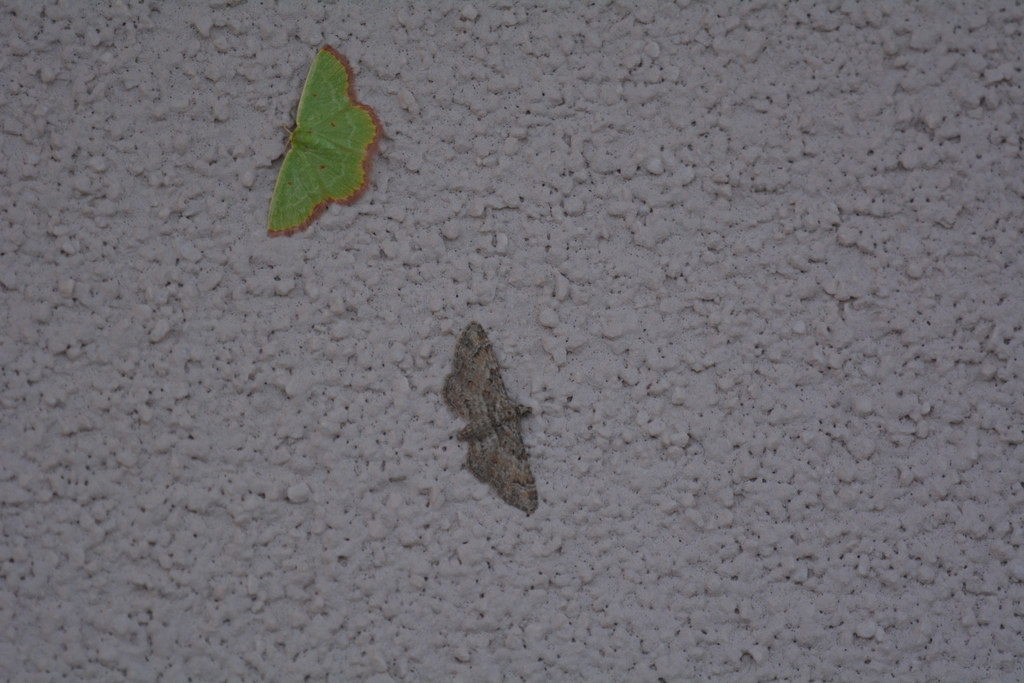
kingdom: Animalia
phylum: Arthropoda
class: Insecta
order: Lepidoptera
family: Geometridae
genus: Eucrostes
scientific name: Eucrostes indigenata
